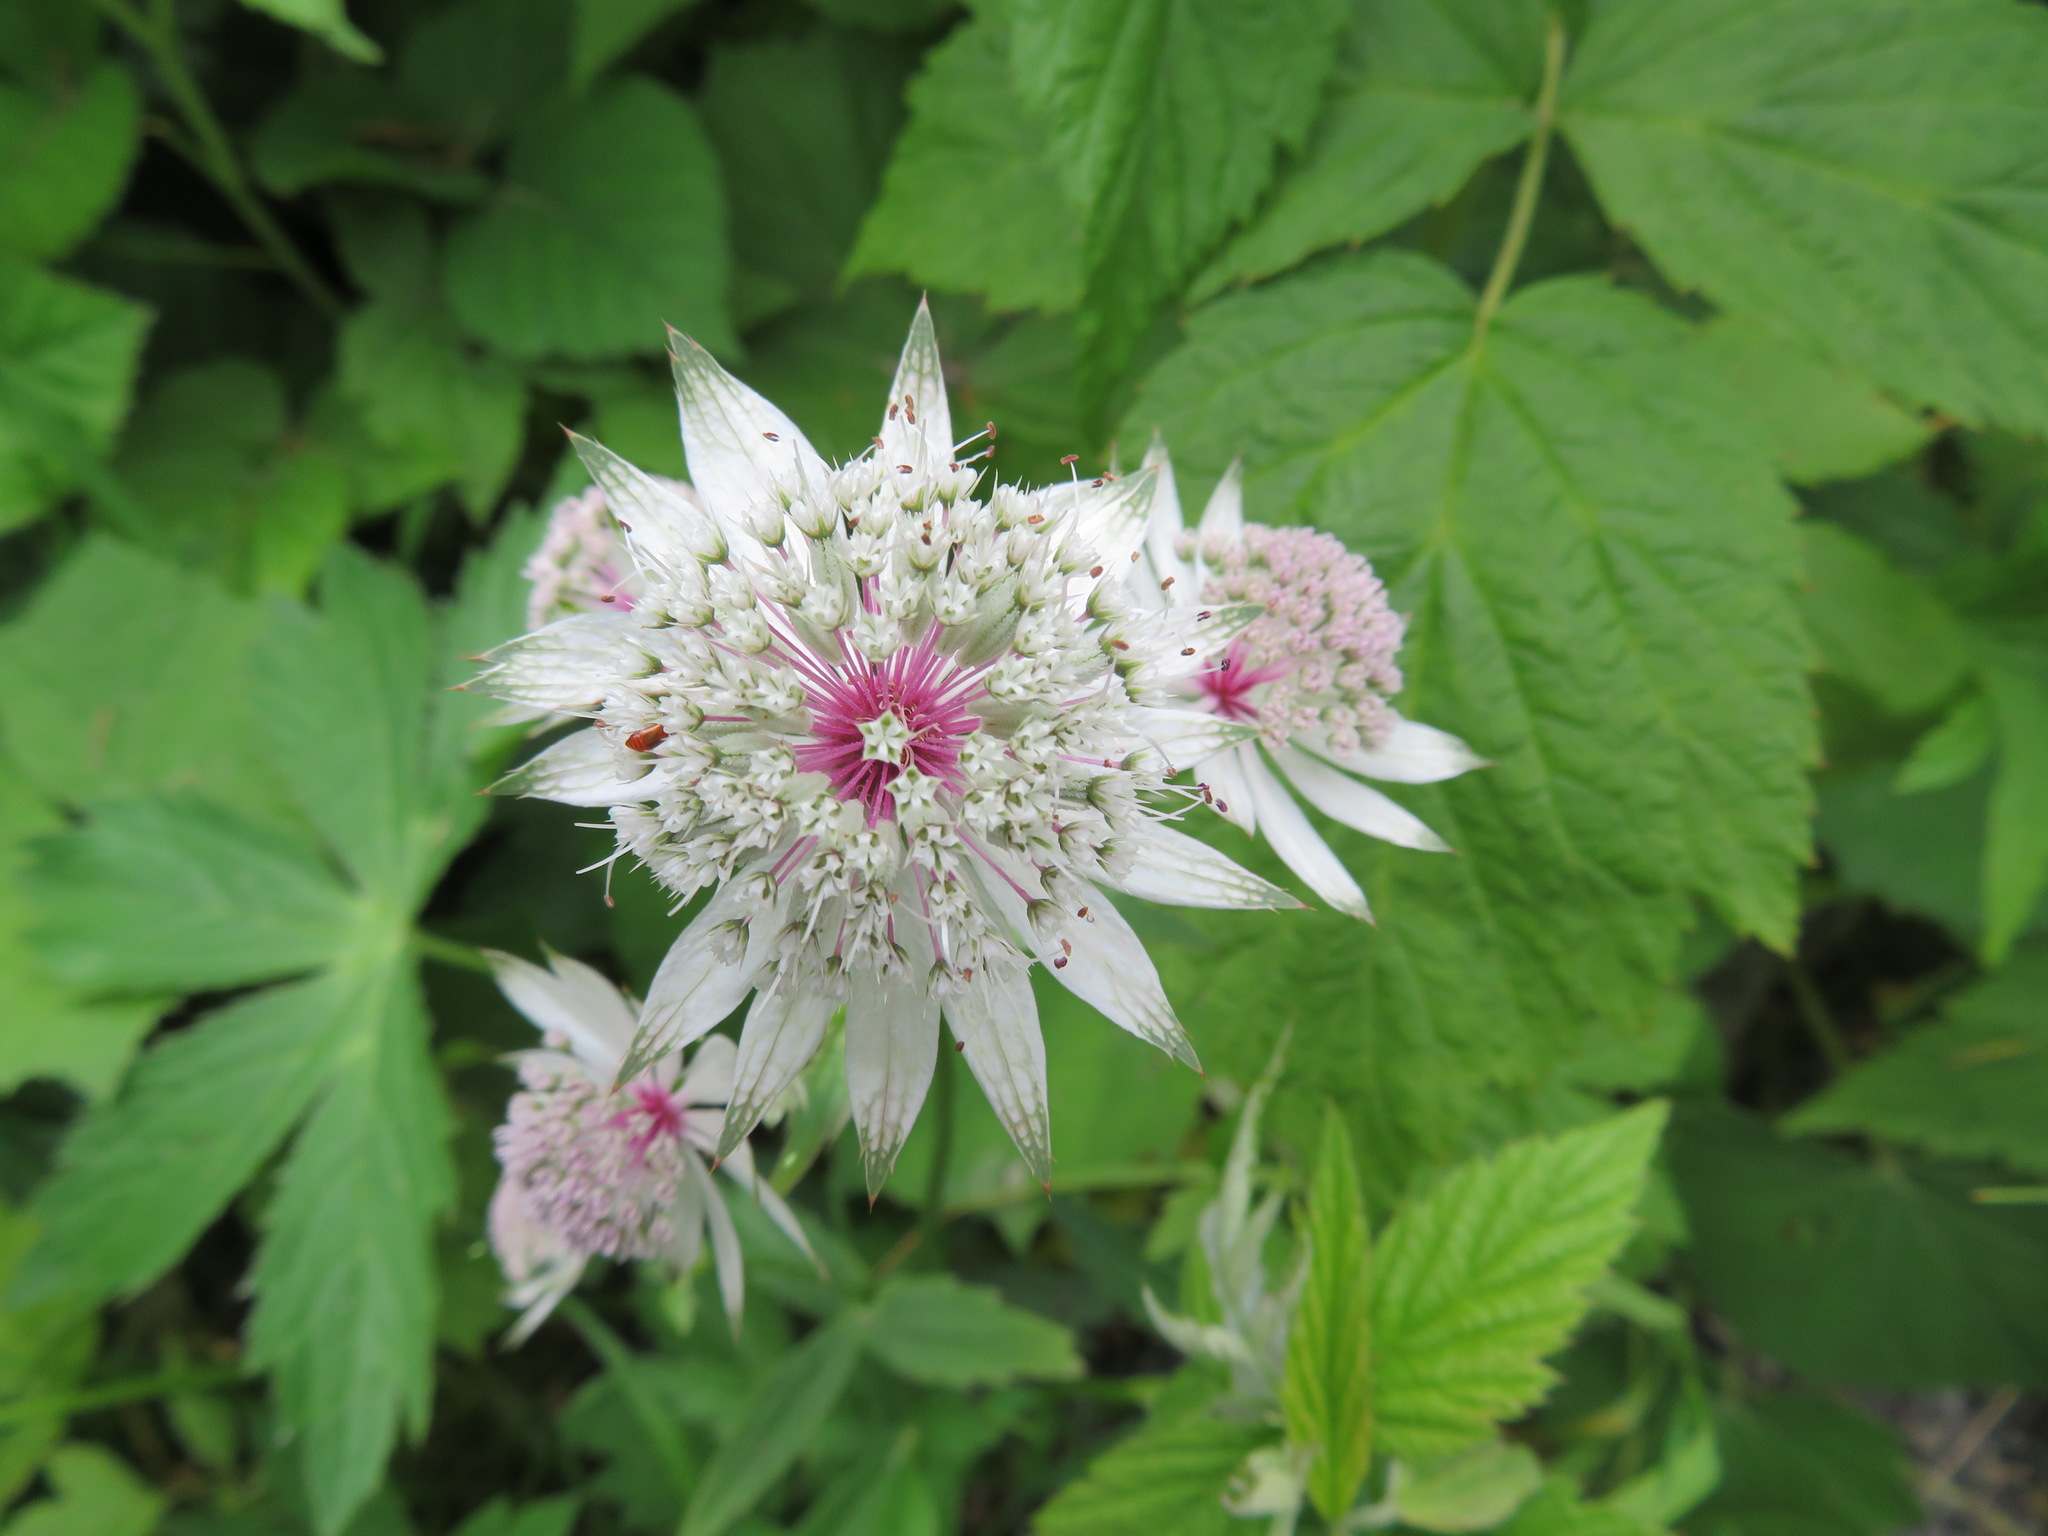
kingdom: Plantae
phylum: Tracheophyta
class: Magnoliopsida
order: Apiales
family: Apiaceae
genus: Astrantia
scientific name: Astrantia major
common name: Greater masterwort
